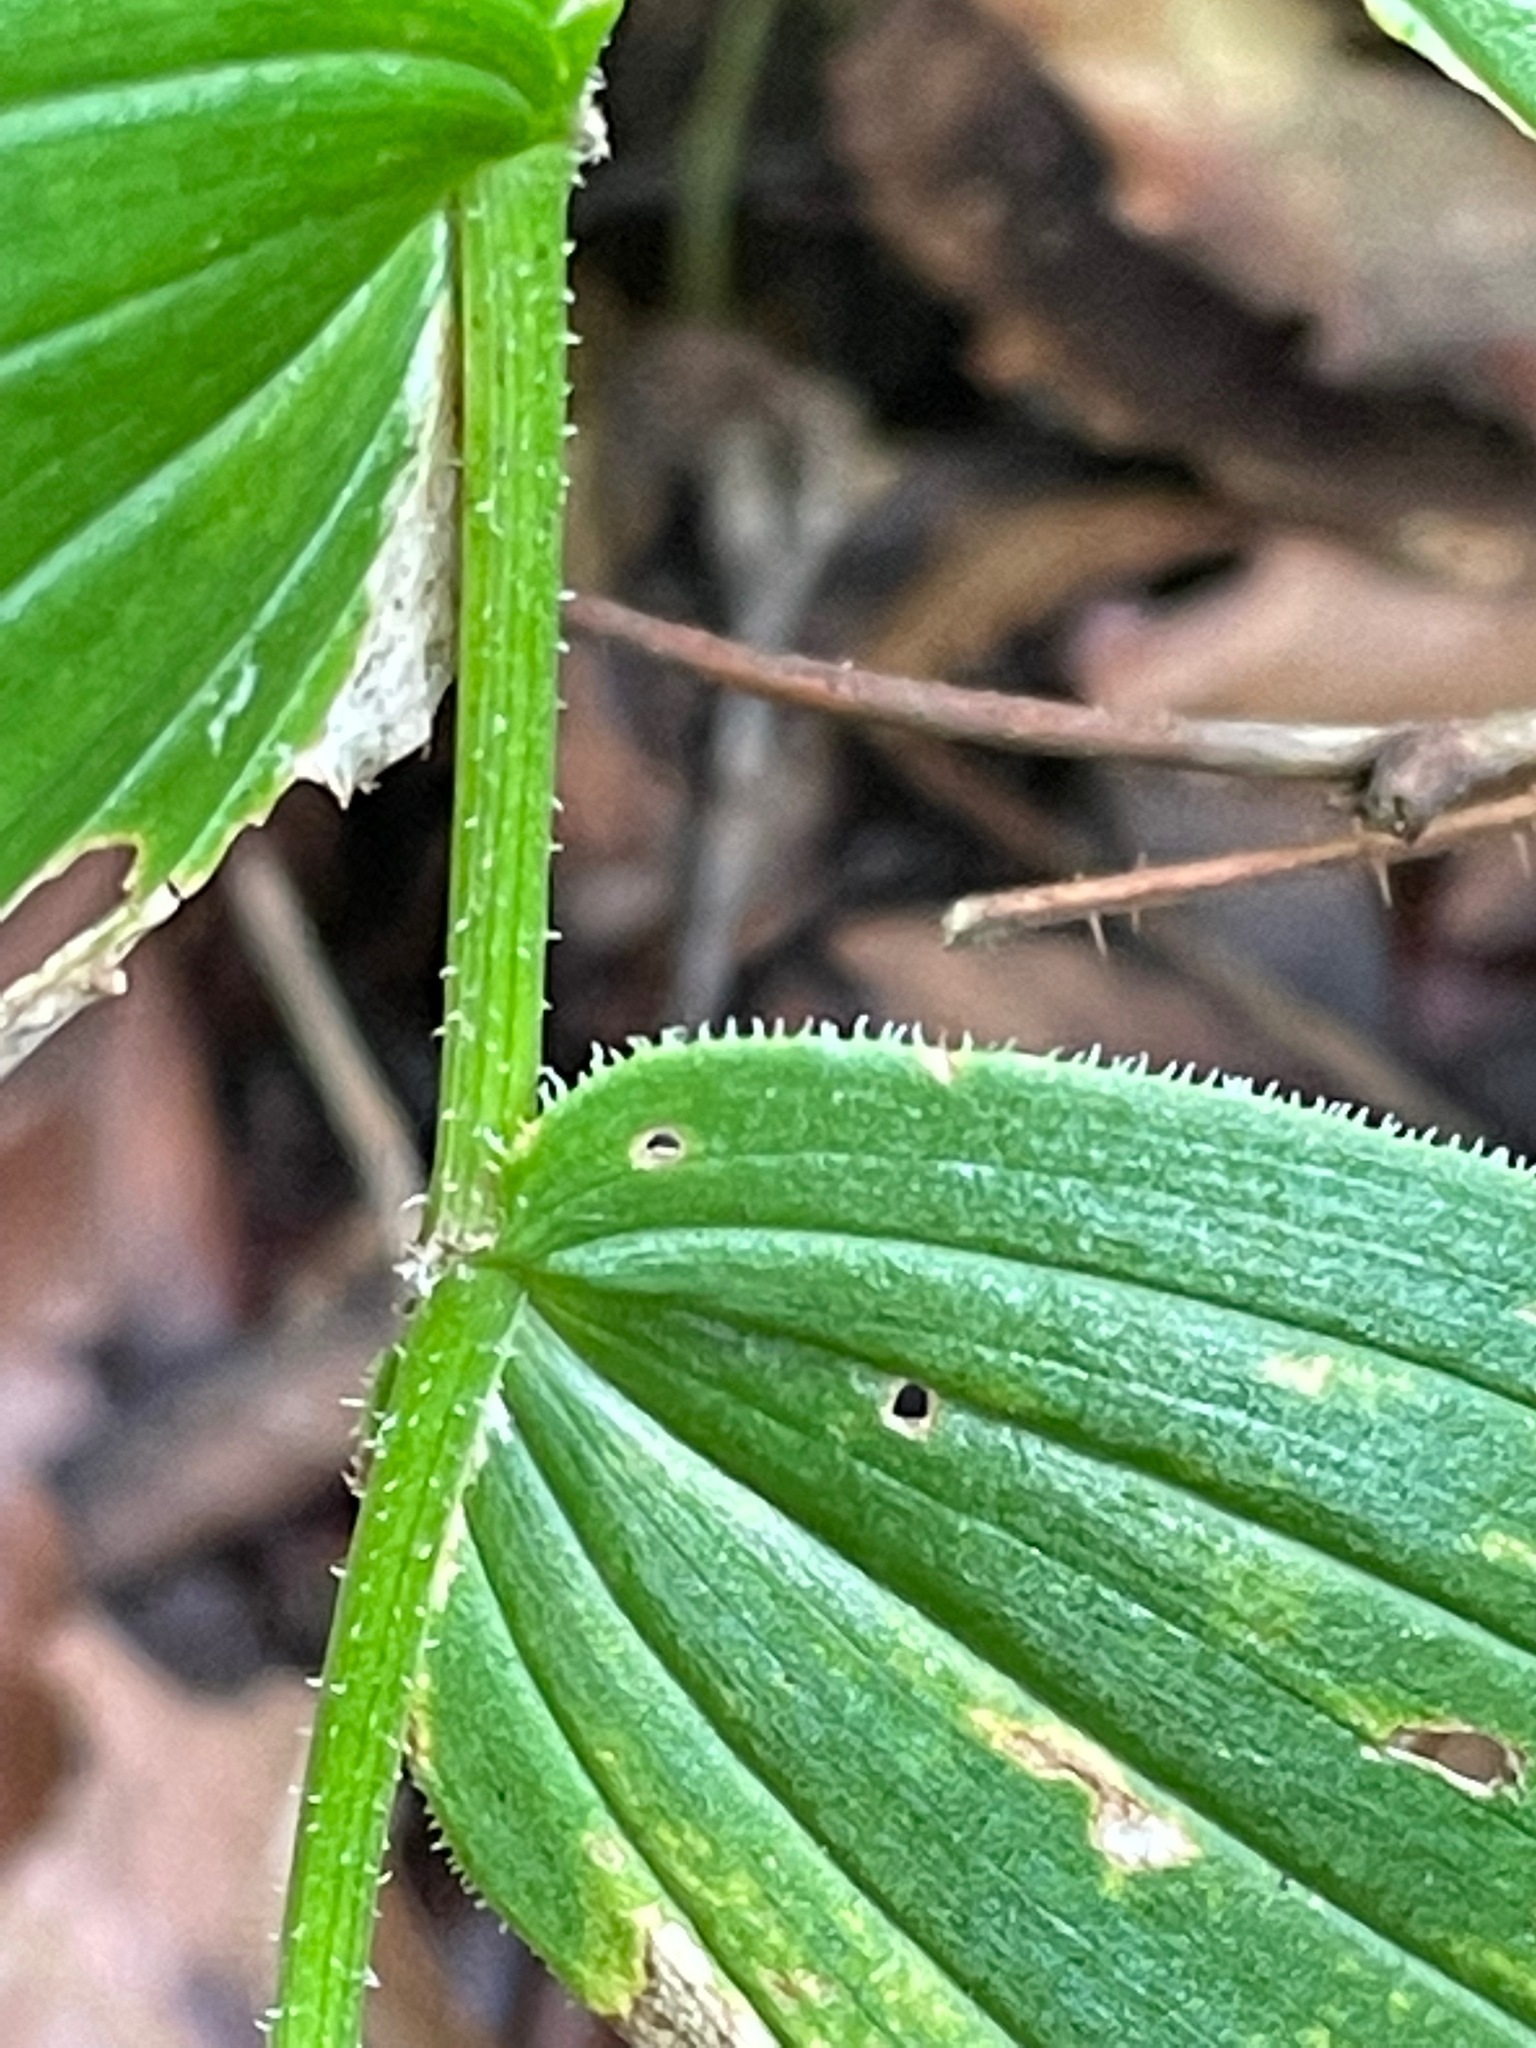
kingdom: Plantae
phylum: Tracheophyta
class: Liliopsida
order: Liliales
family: Liliaceae
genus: Streptopus
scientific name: Streptopus lanceolatus
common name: Rose mandarin
